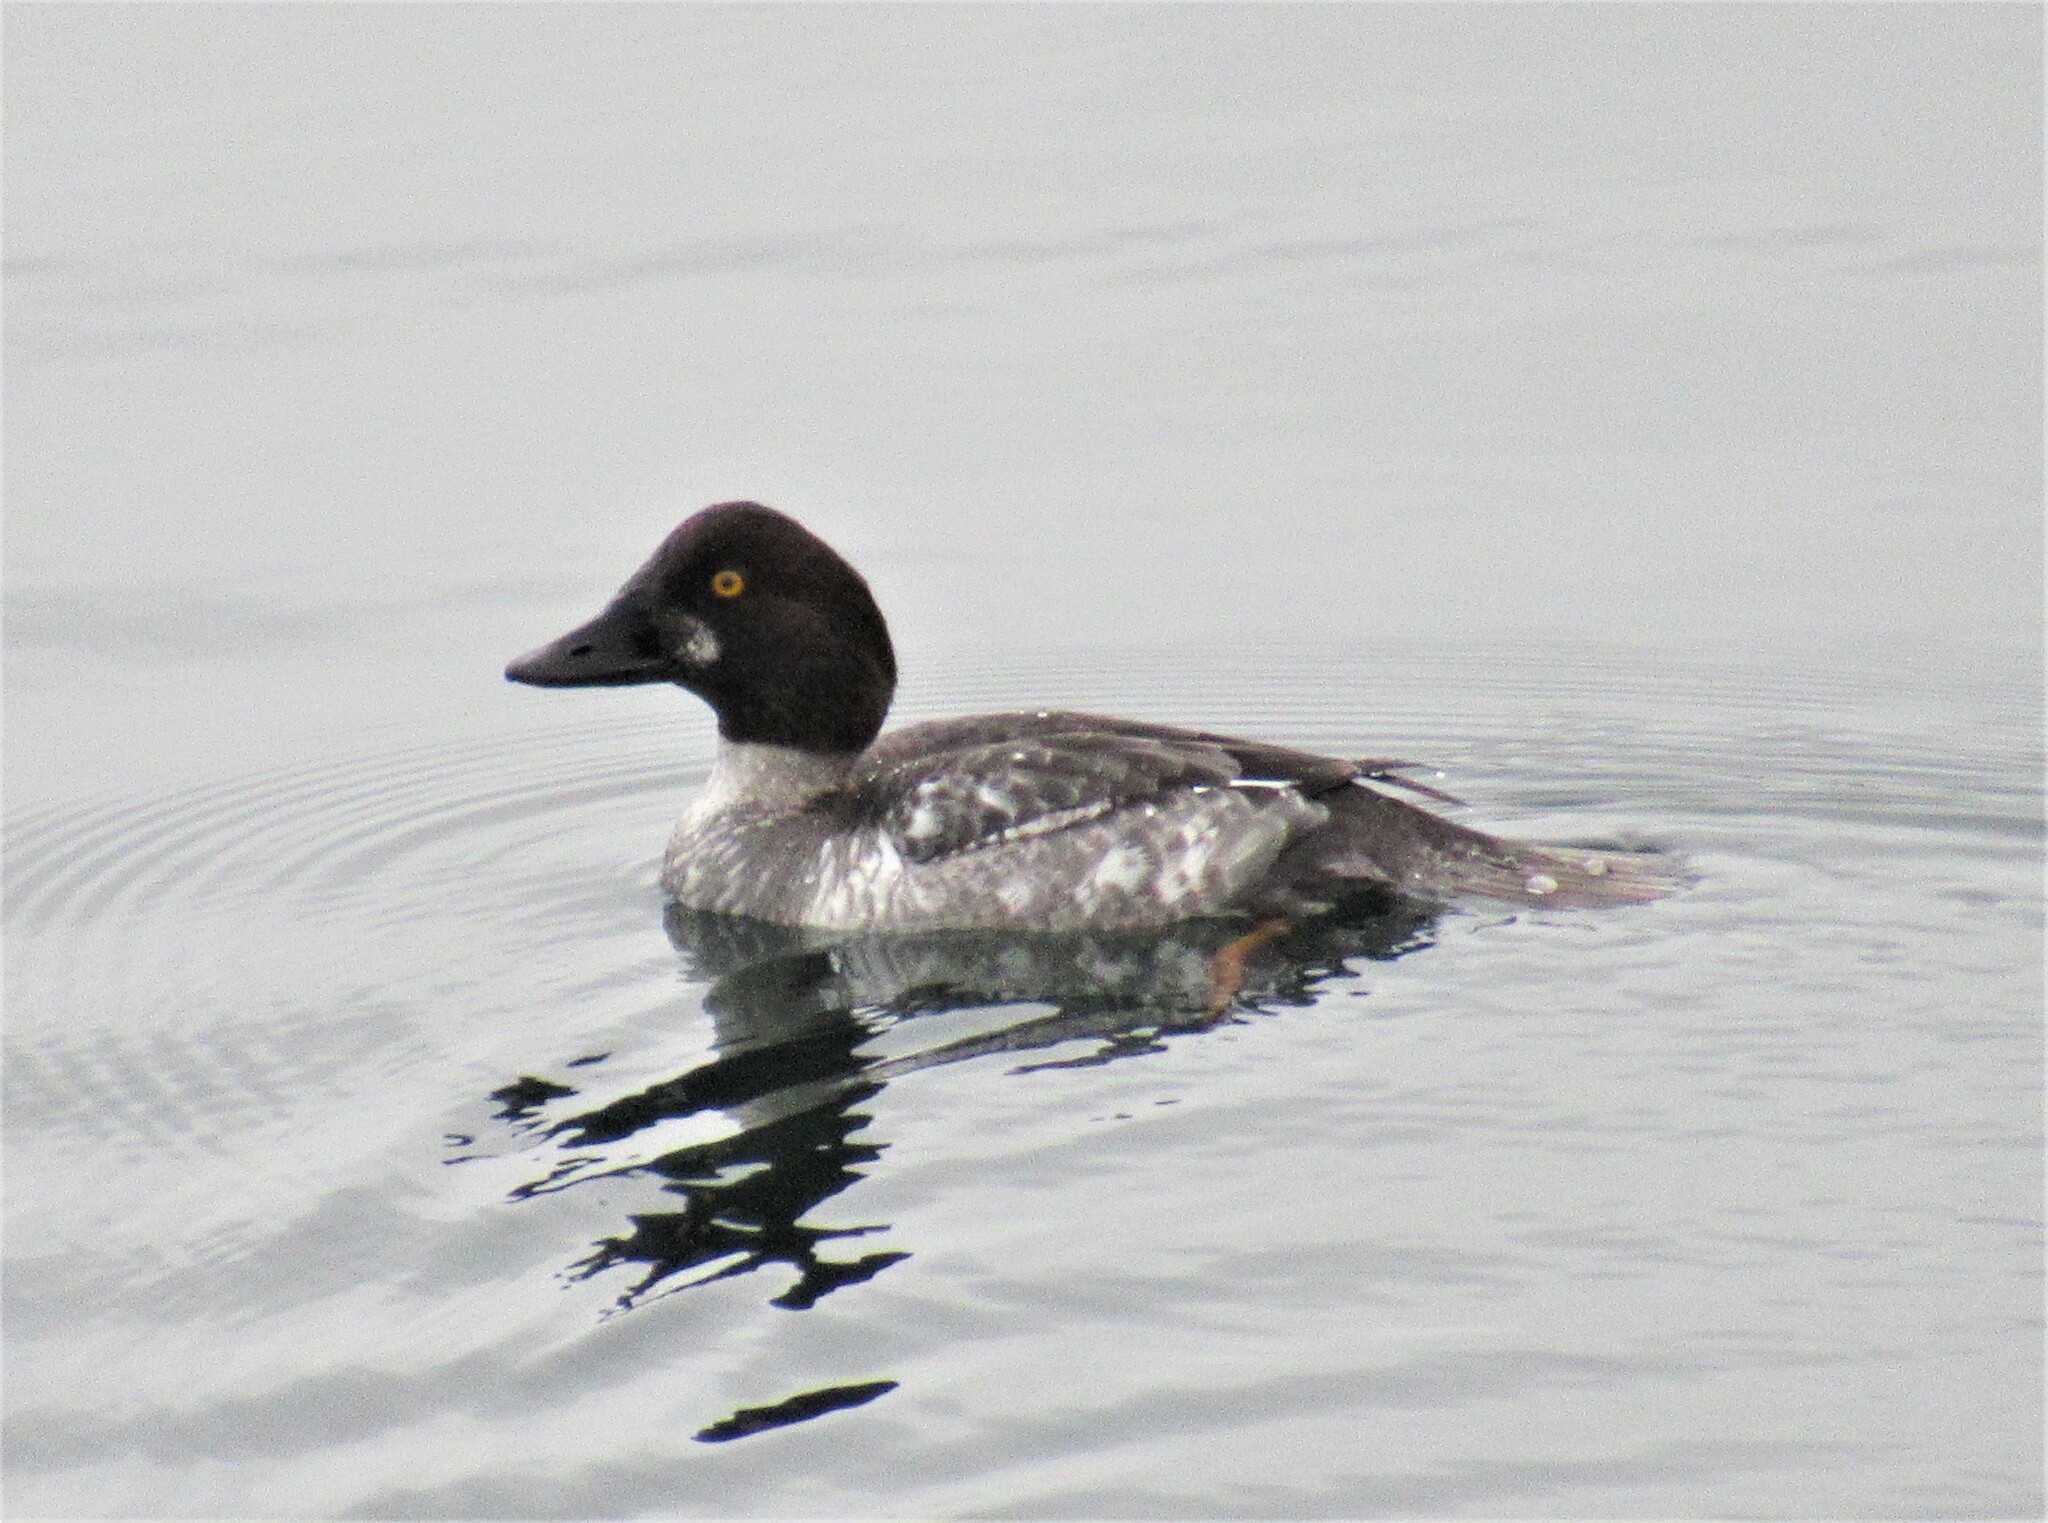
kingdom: Animalia
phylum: Chordata
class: Aves
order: Anseriformes
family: Anatidae
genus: Bucephala
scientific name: Bucephala clangula
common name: Common goldeneye
